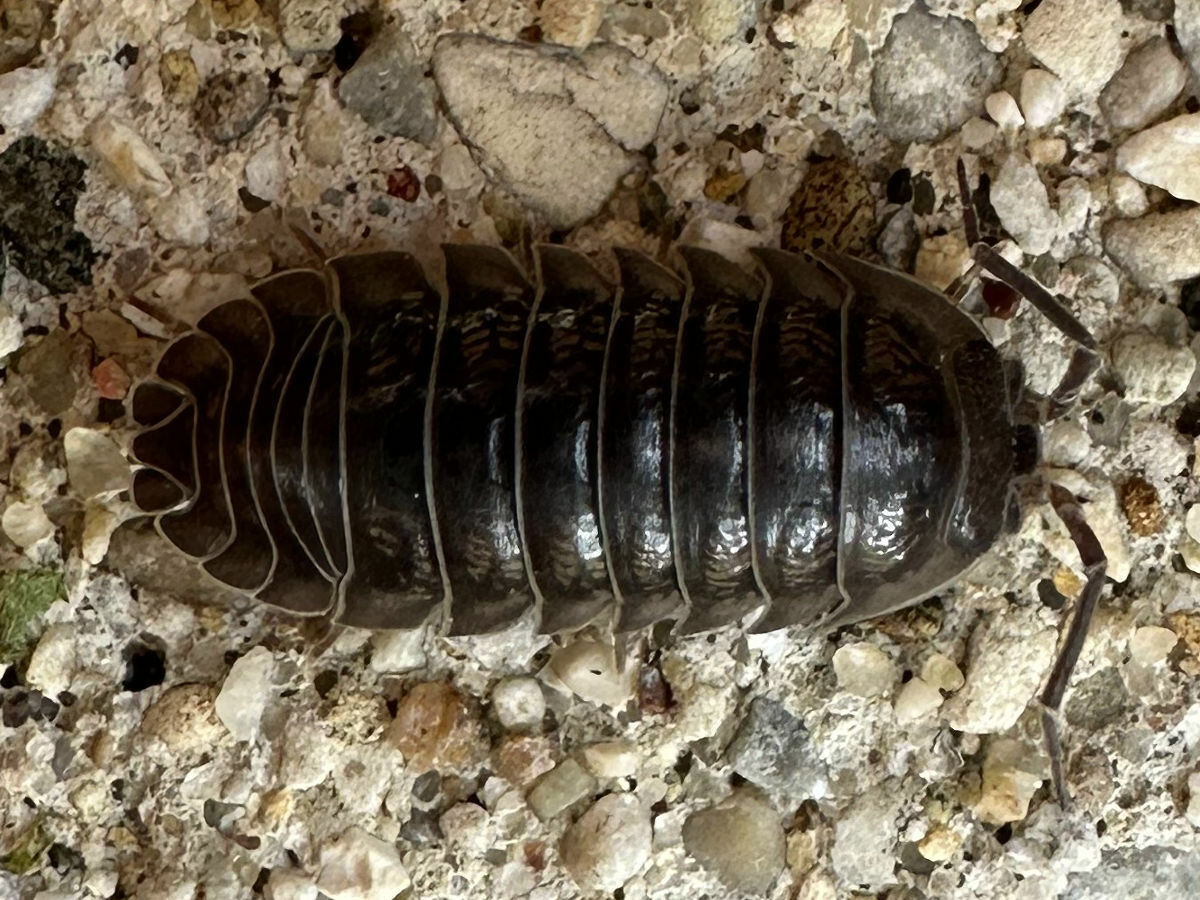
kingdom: Animalia
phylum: Arthropoda
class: Malacostraca
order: Isopoda
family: Armadillidiidae
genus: Armadillidium
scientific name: Armadillidium nasatum
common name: Isopod
